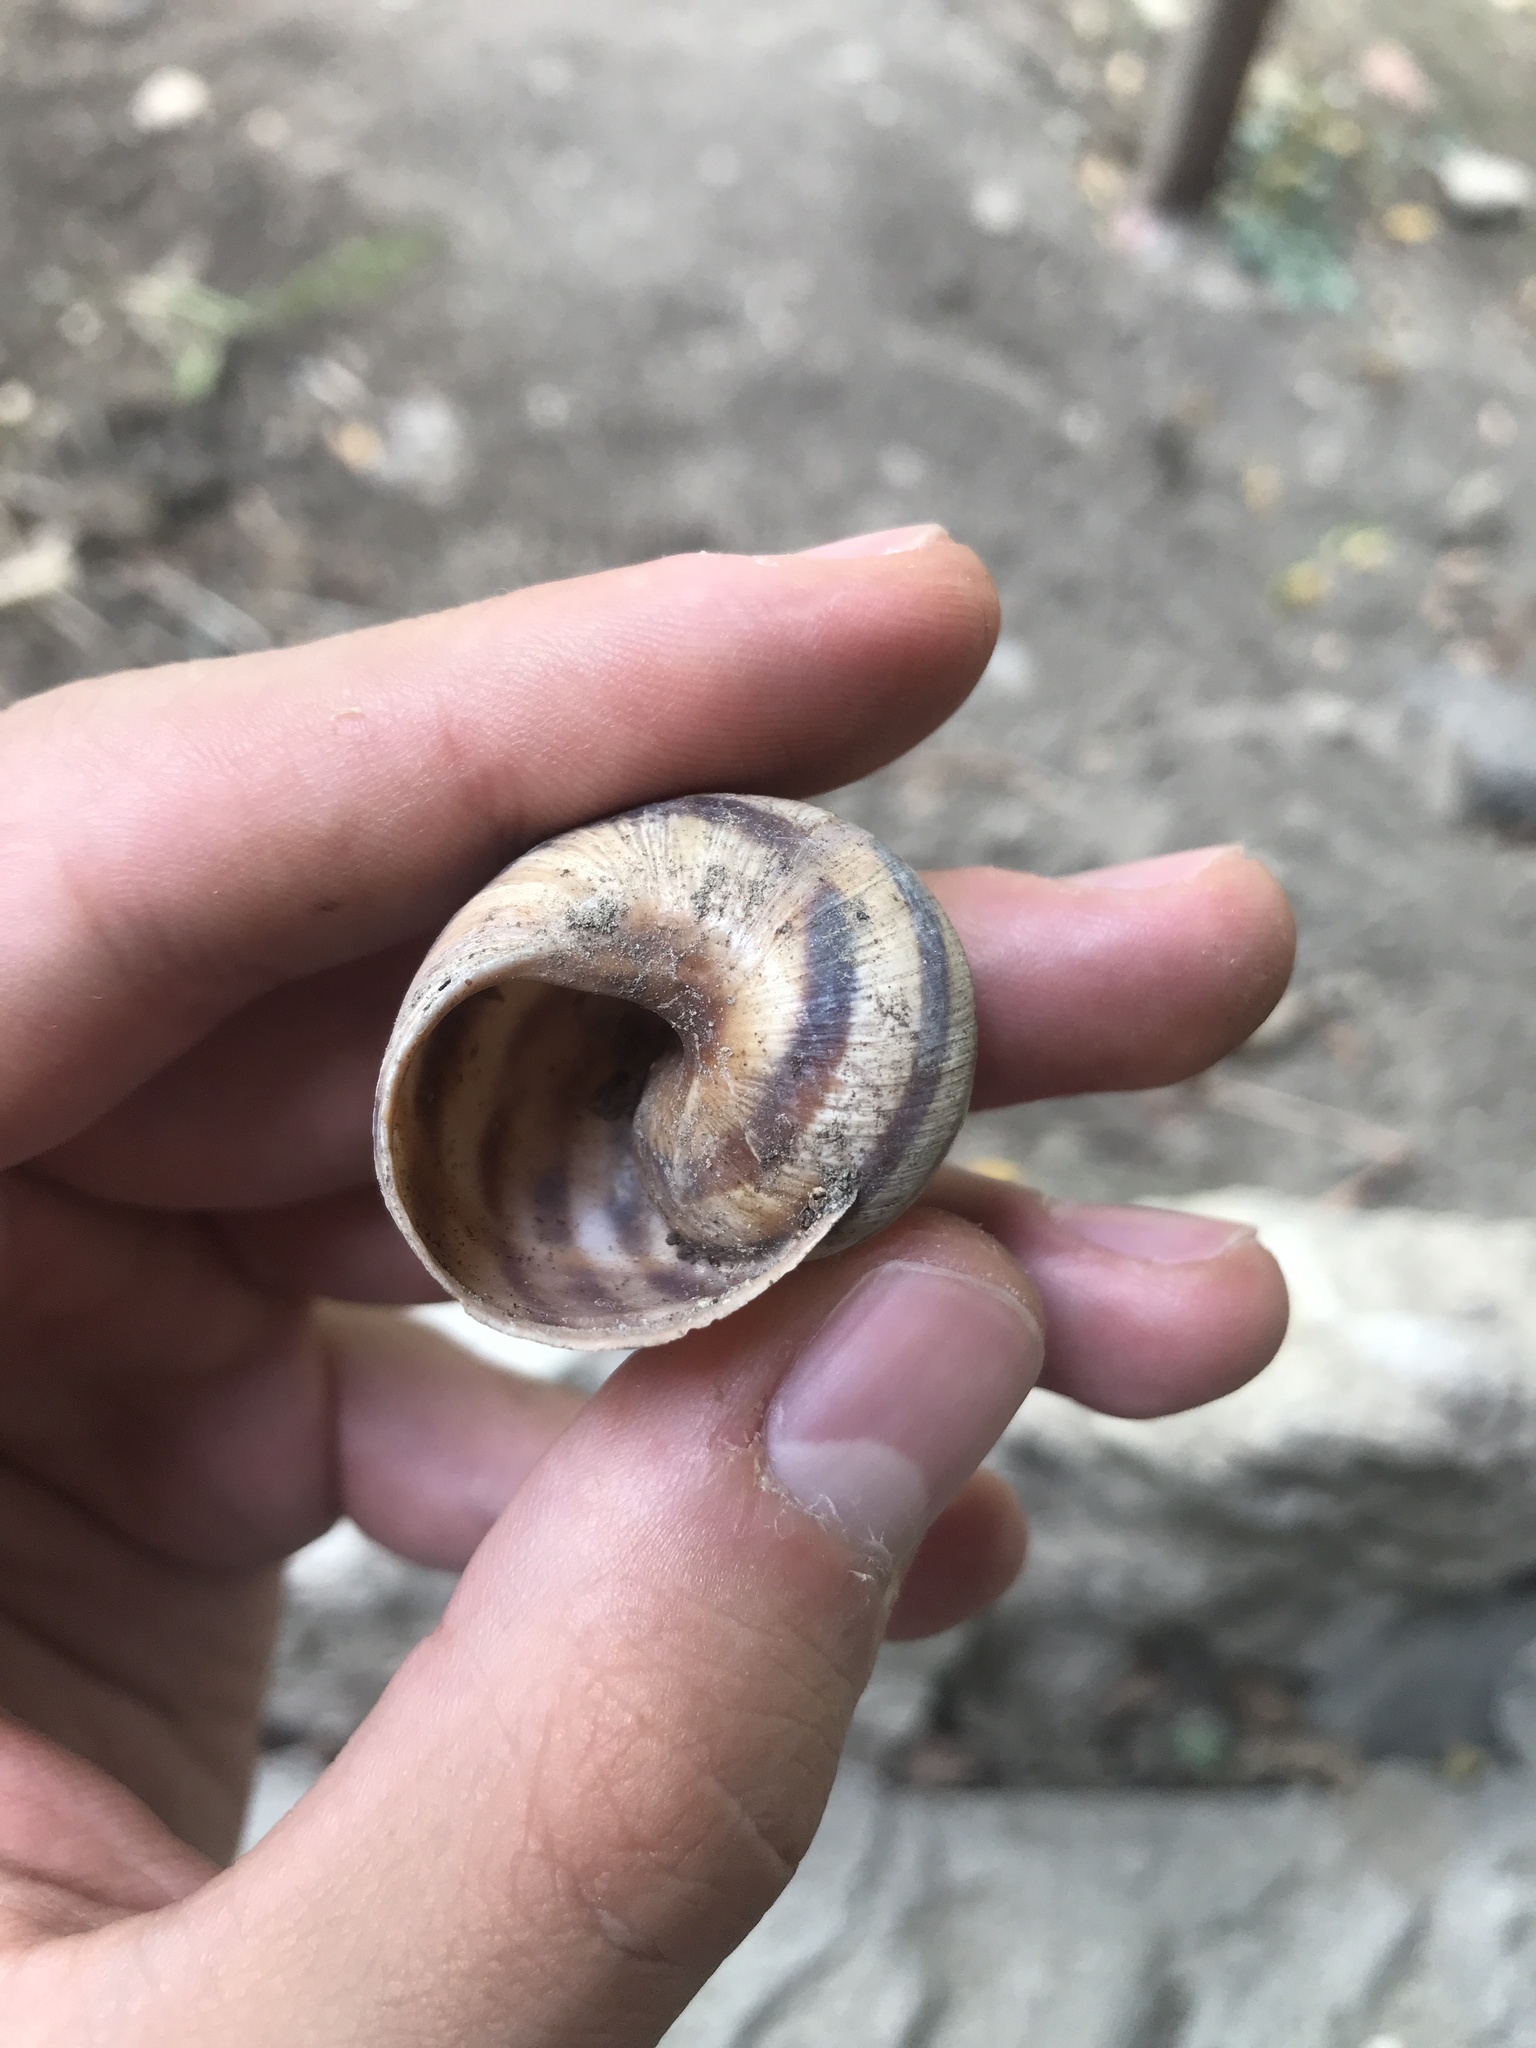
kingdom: Animalia
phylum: Mollusca
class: Gastropoda
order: Stylommatophora
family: Helicidae
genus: Helix
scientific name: Helix albescens
